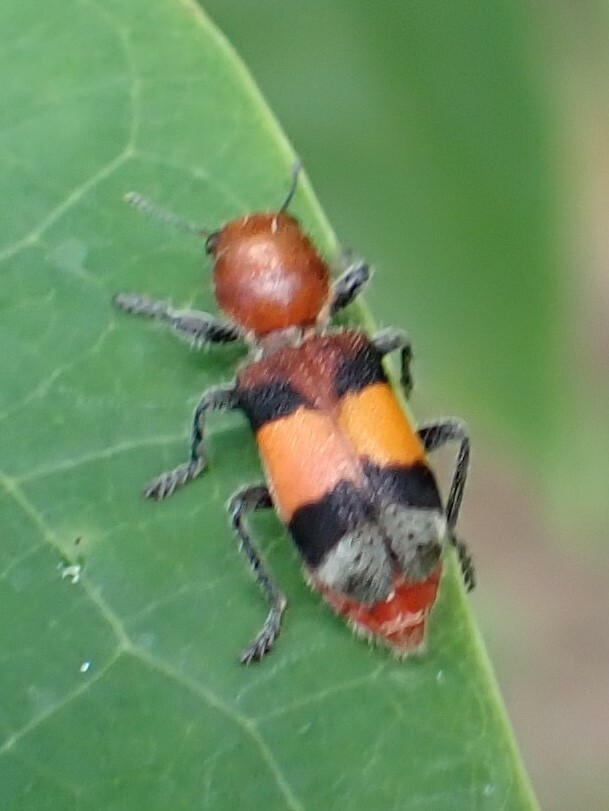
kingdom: Animalia
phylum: Arthropoda
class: Insecta
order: Coleoptera
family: Cleridae
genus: Enoclerus
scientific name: Enoclerus ichneumoneus
